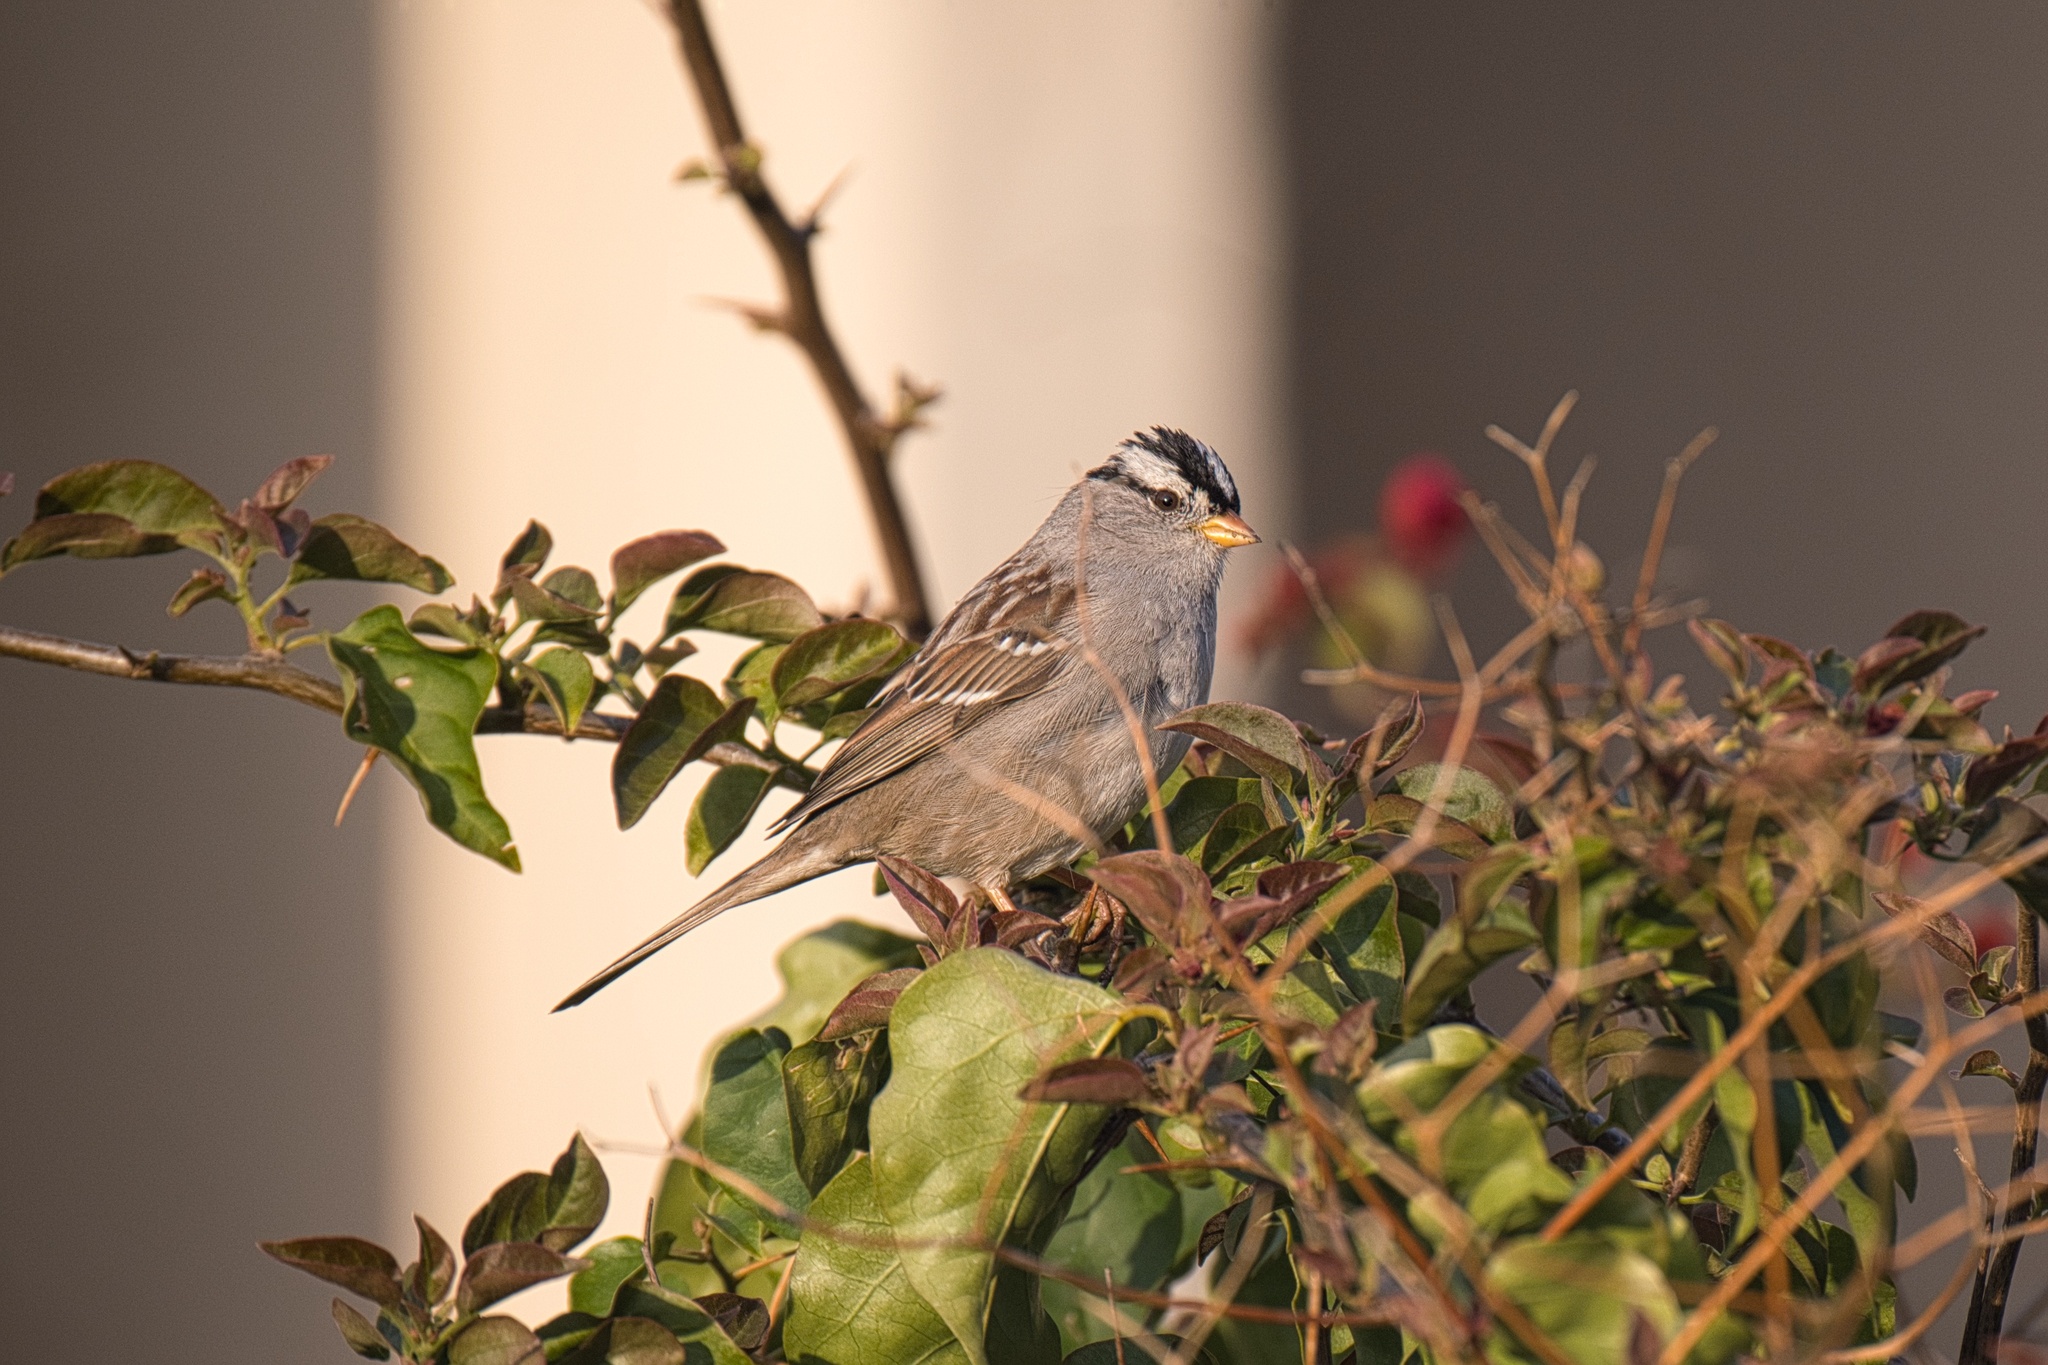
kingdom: Animalia
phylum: Chordata
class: Aves
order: Passeriformes
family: Passerellidae
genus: Zonotrichia
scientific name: Zonotrichia leucophrys
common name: White-crowned sparrow
